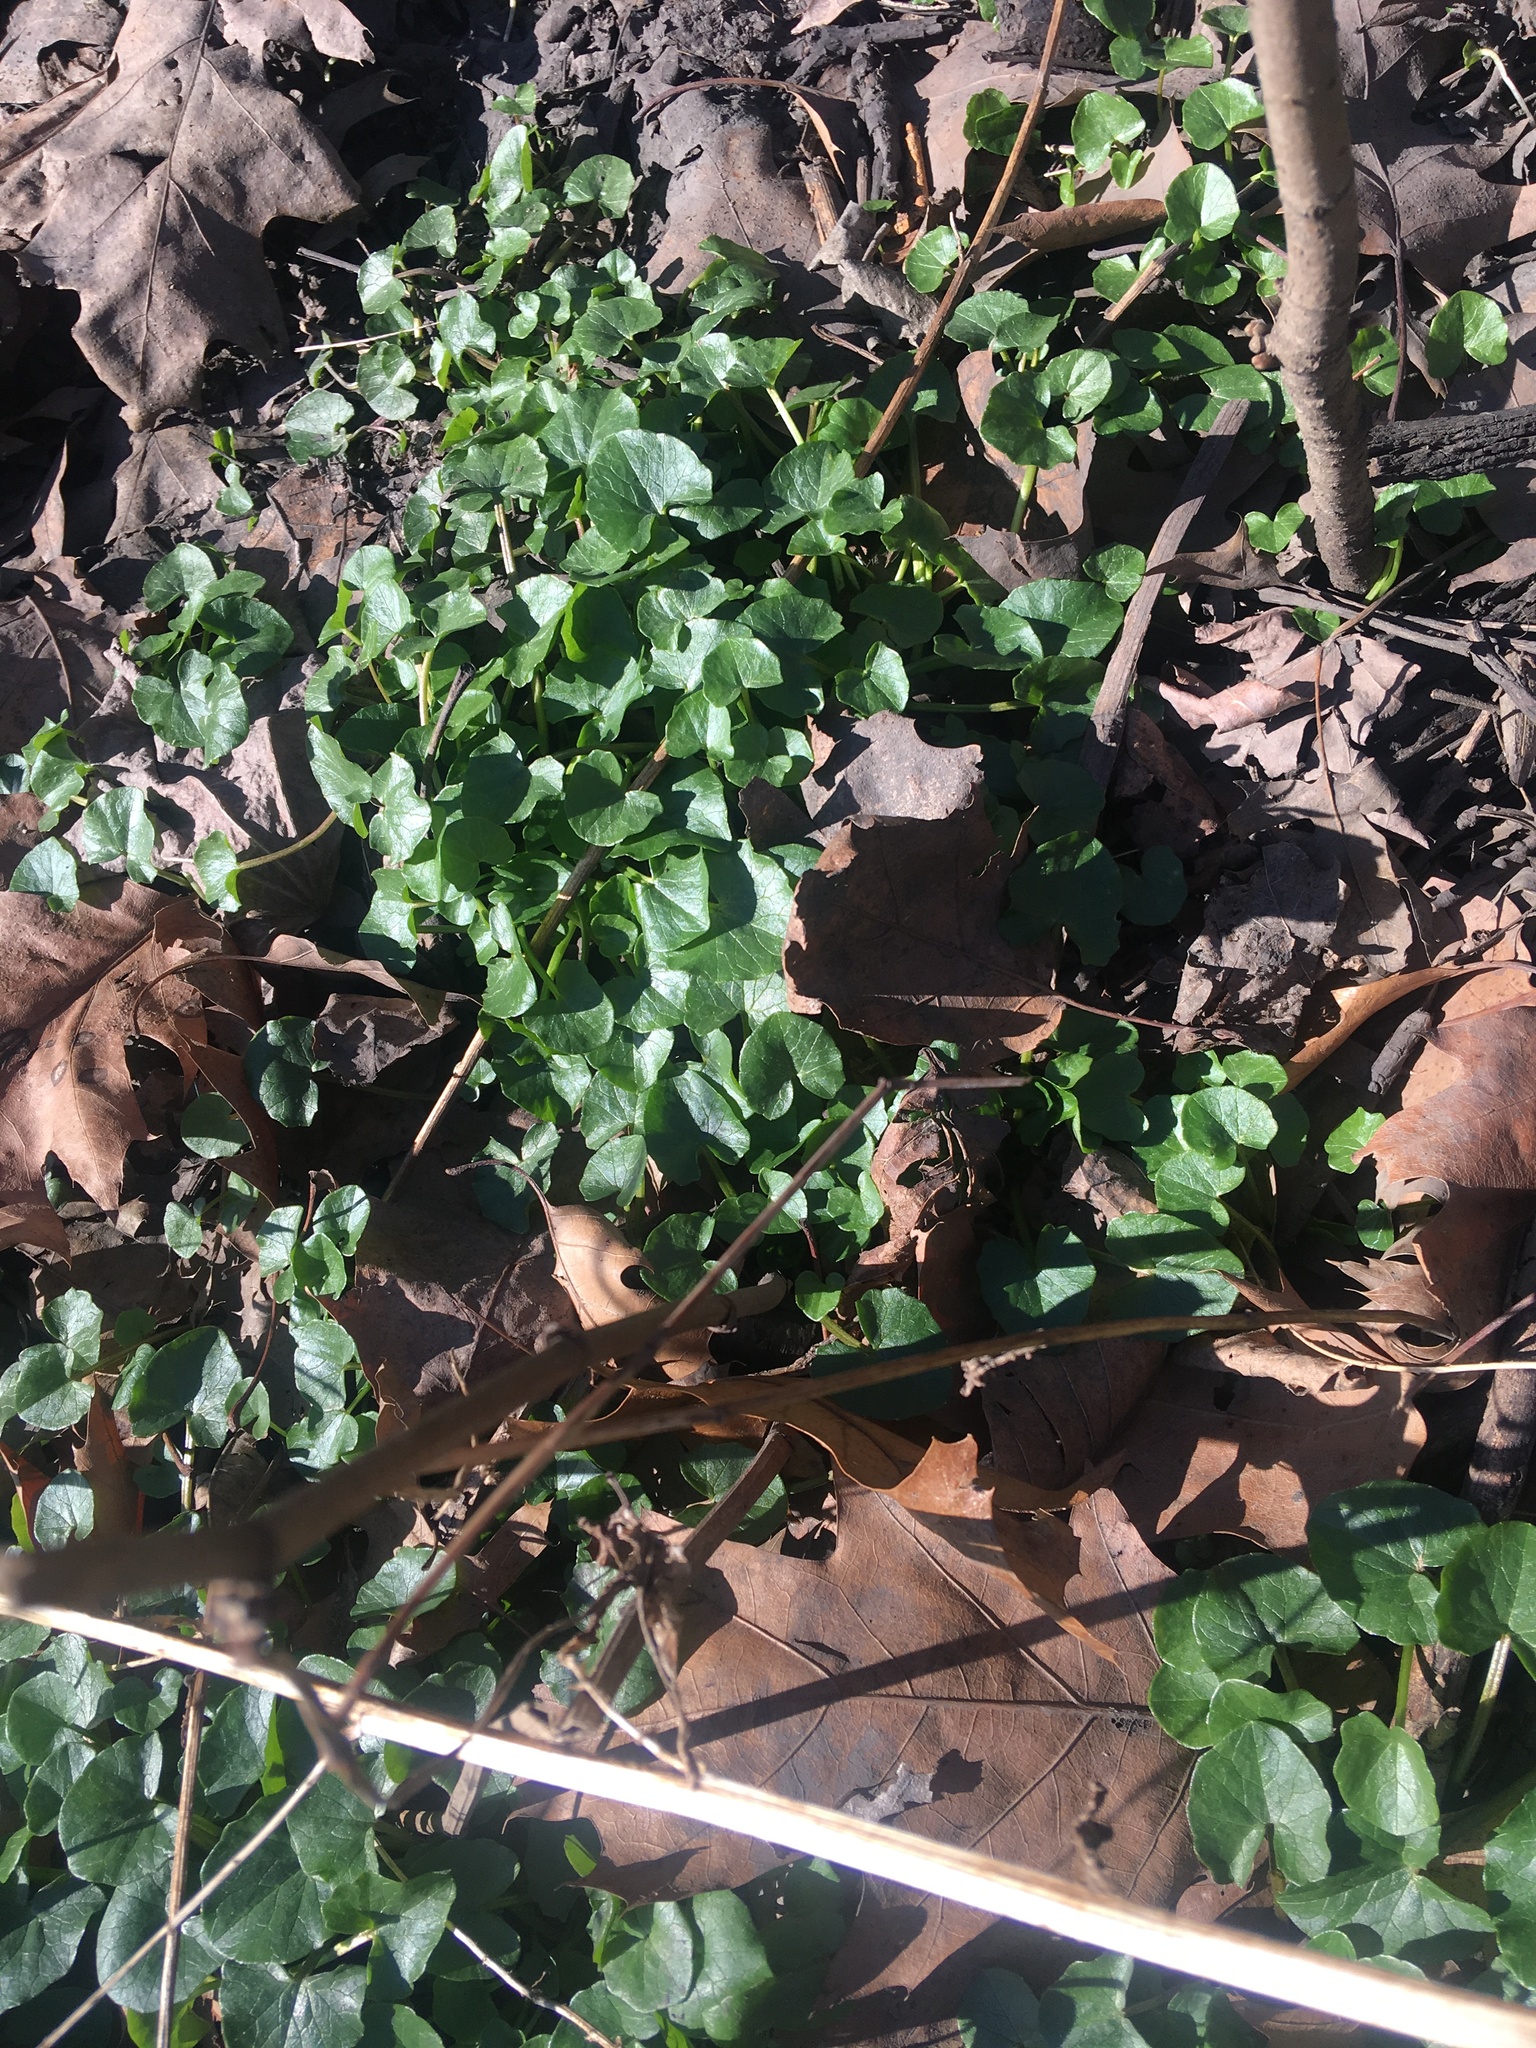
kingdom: Plantae
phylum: Tracheophyta
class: Magnoliopsida
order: Ranunculales
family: Ranunculaceae
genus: Ficaria
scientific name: Ficaria verna
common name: Lesser celandine
